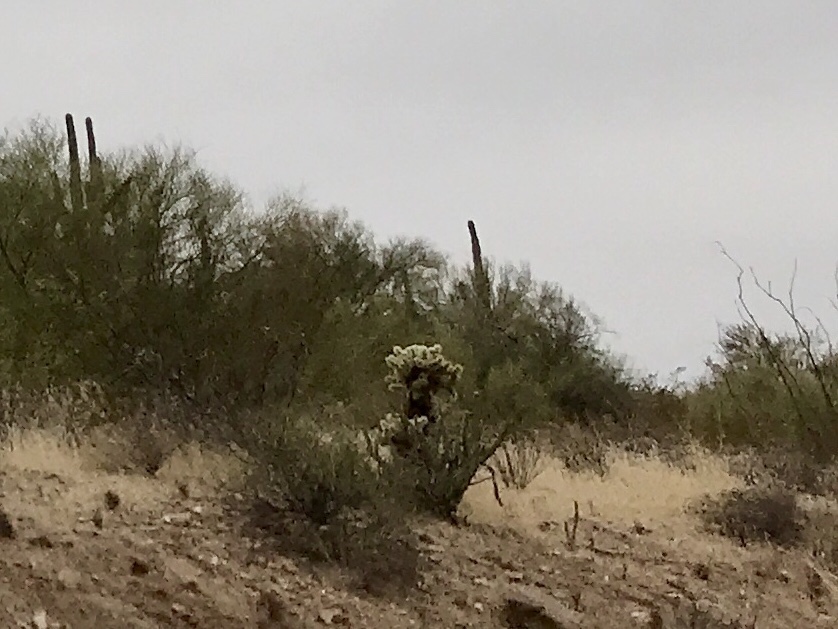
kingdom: Plantae
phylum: Tracheophyta
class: Magnoliopsida
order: Caryophyllales
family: Cactaceae
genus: Cylindropuntia
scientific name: Cylindropuntia fosbergii
